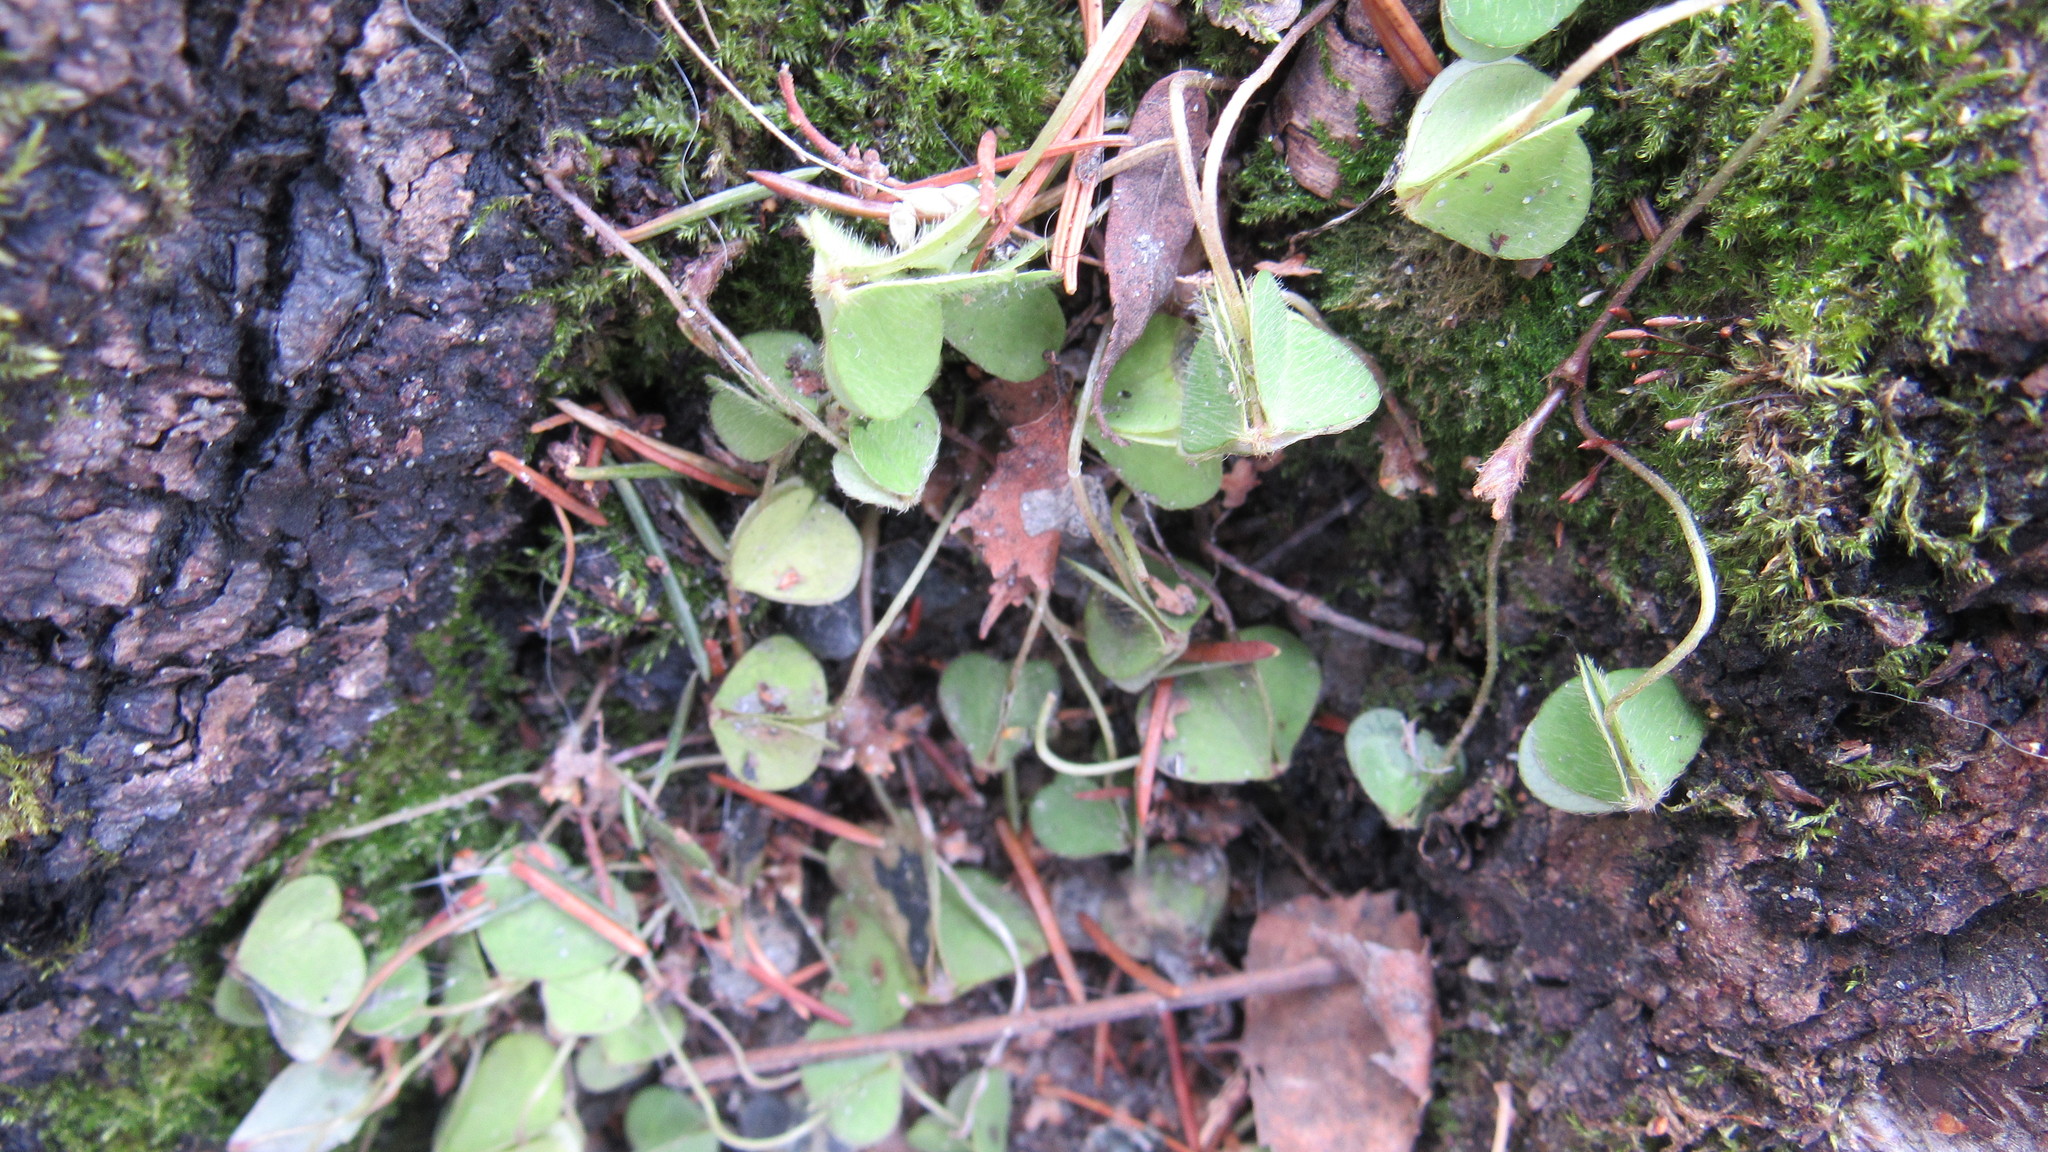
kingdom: Plantae
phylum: Tracheophyta
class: Magnoliopsida
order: Oxalidales
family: Oxalidaceae
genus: Oxalis
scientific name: Oxalis acetosella
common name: Wood-sorrel
